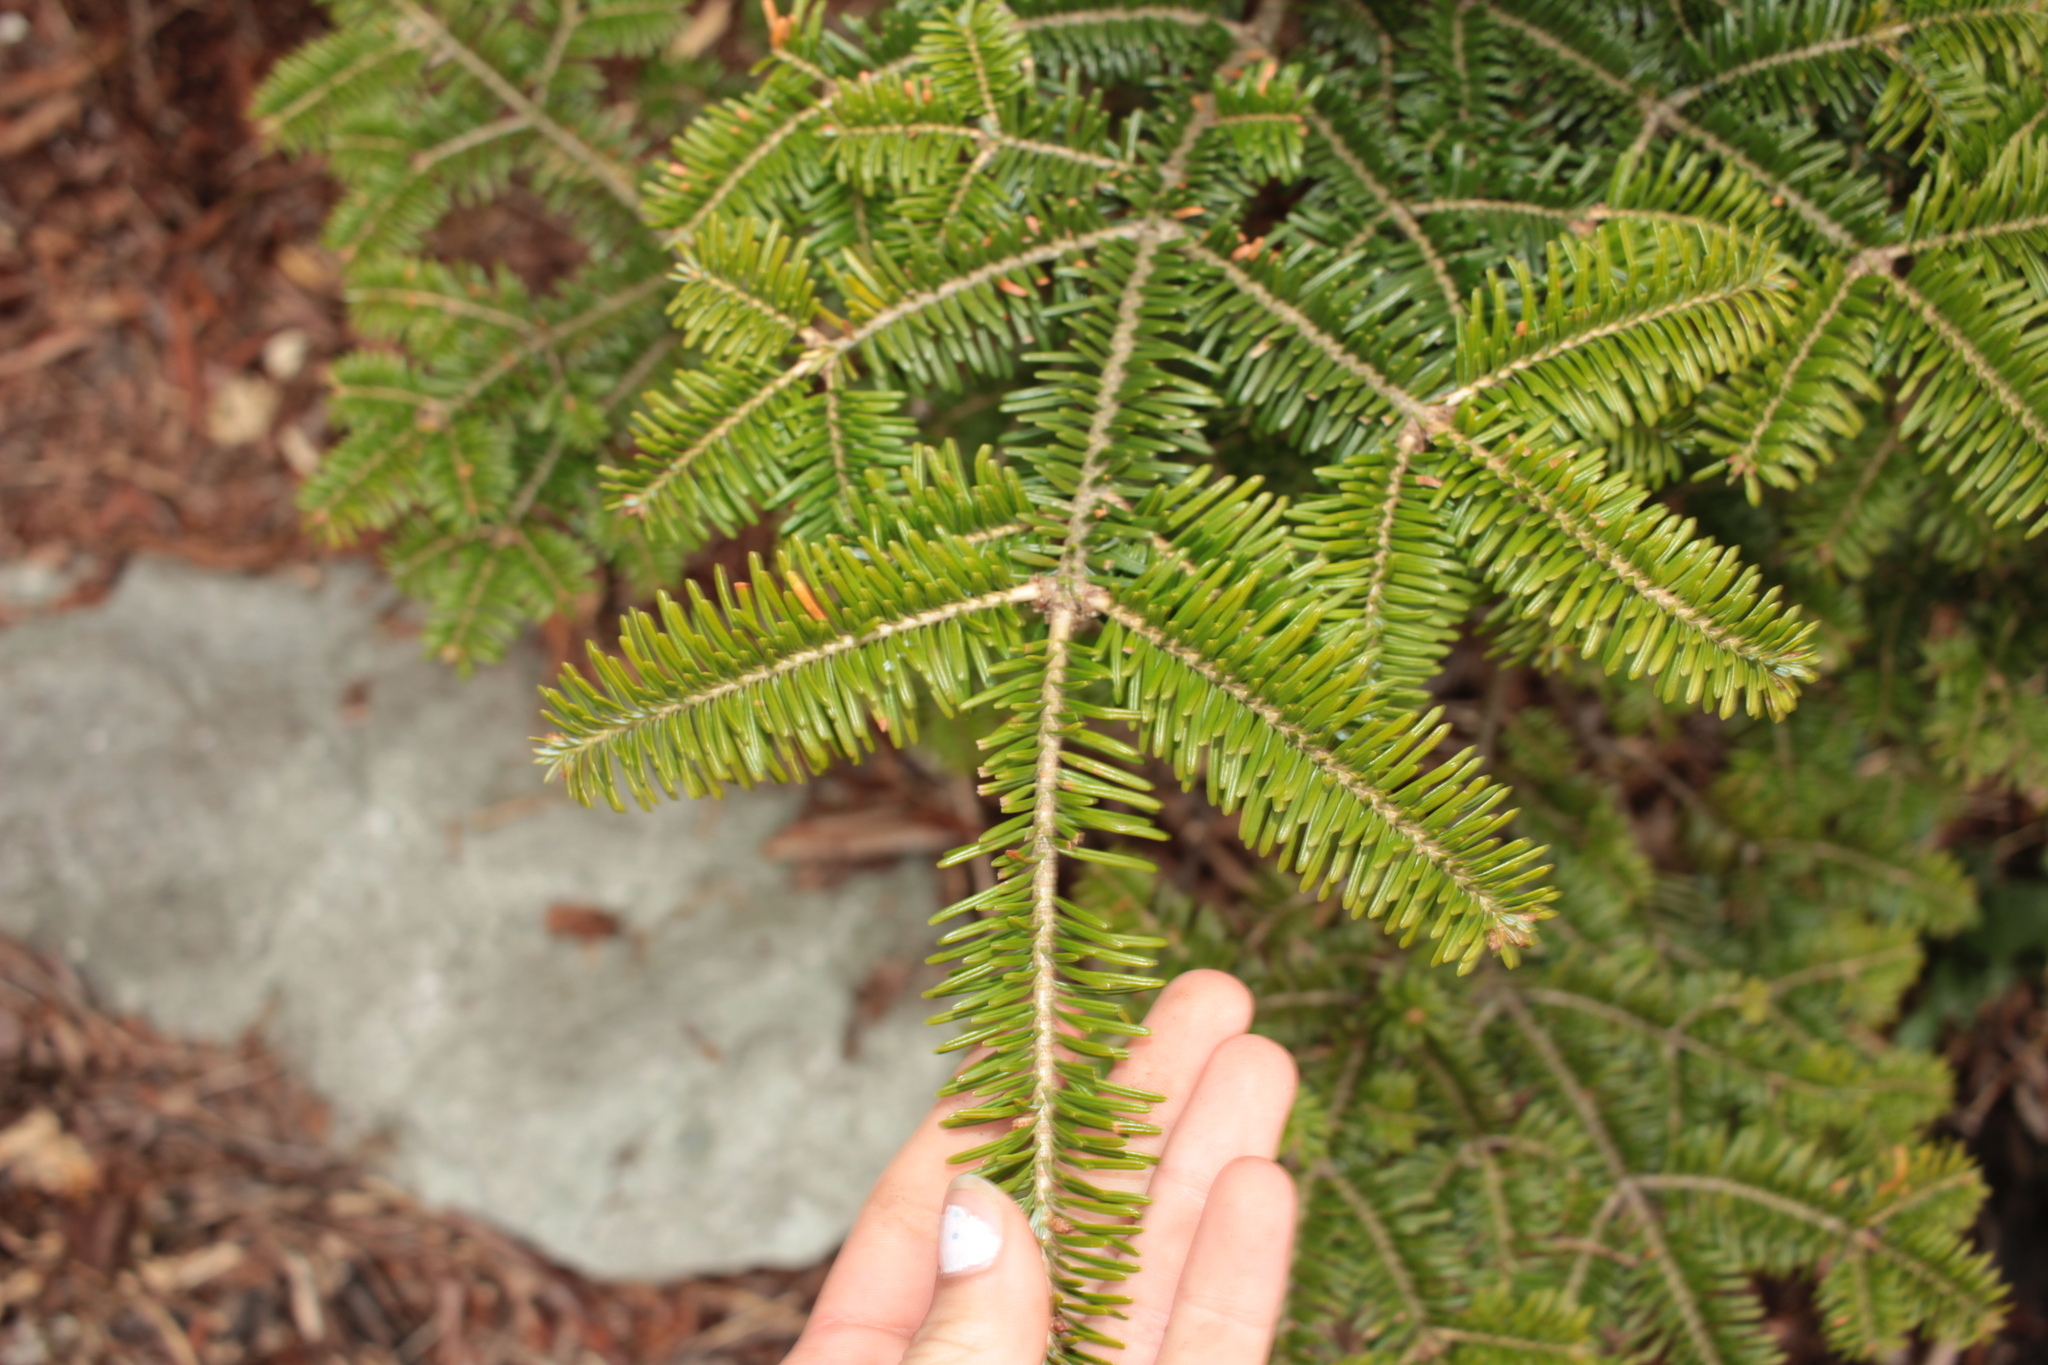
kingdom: Plantae
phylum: Tracheophyta
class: Pinopsida
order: Pinales
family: Pinaceae
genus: Abies
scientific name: Abies fraseri
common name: Fraser fir
